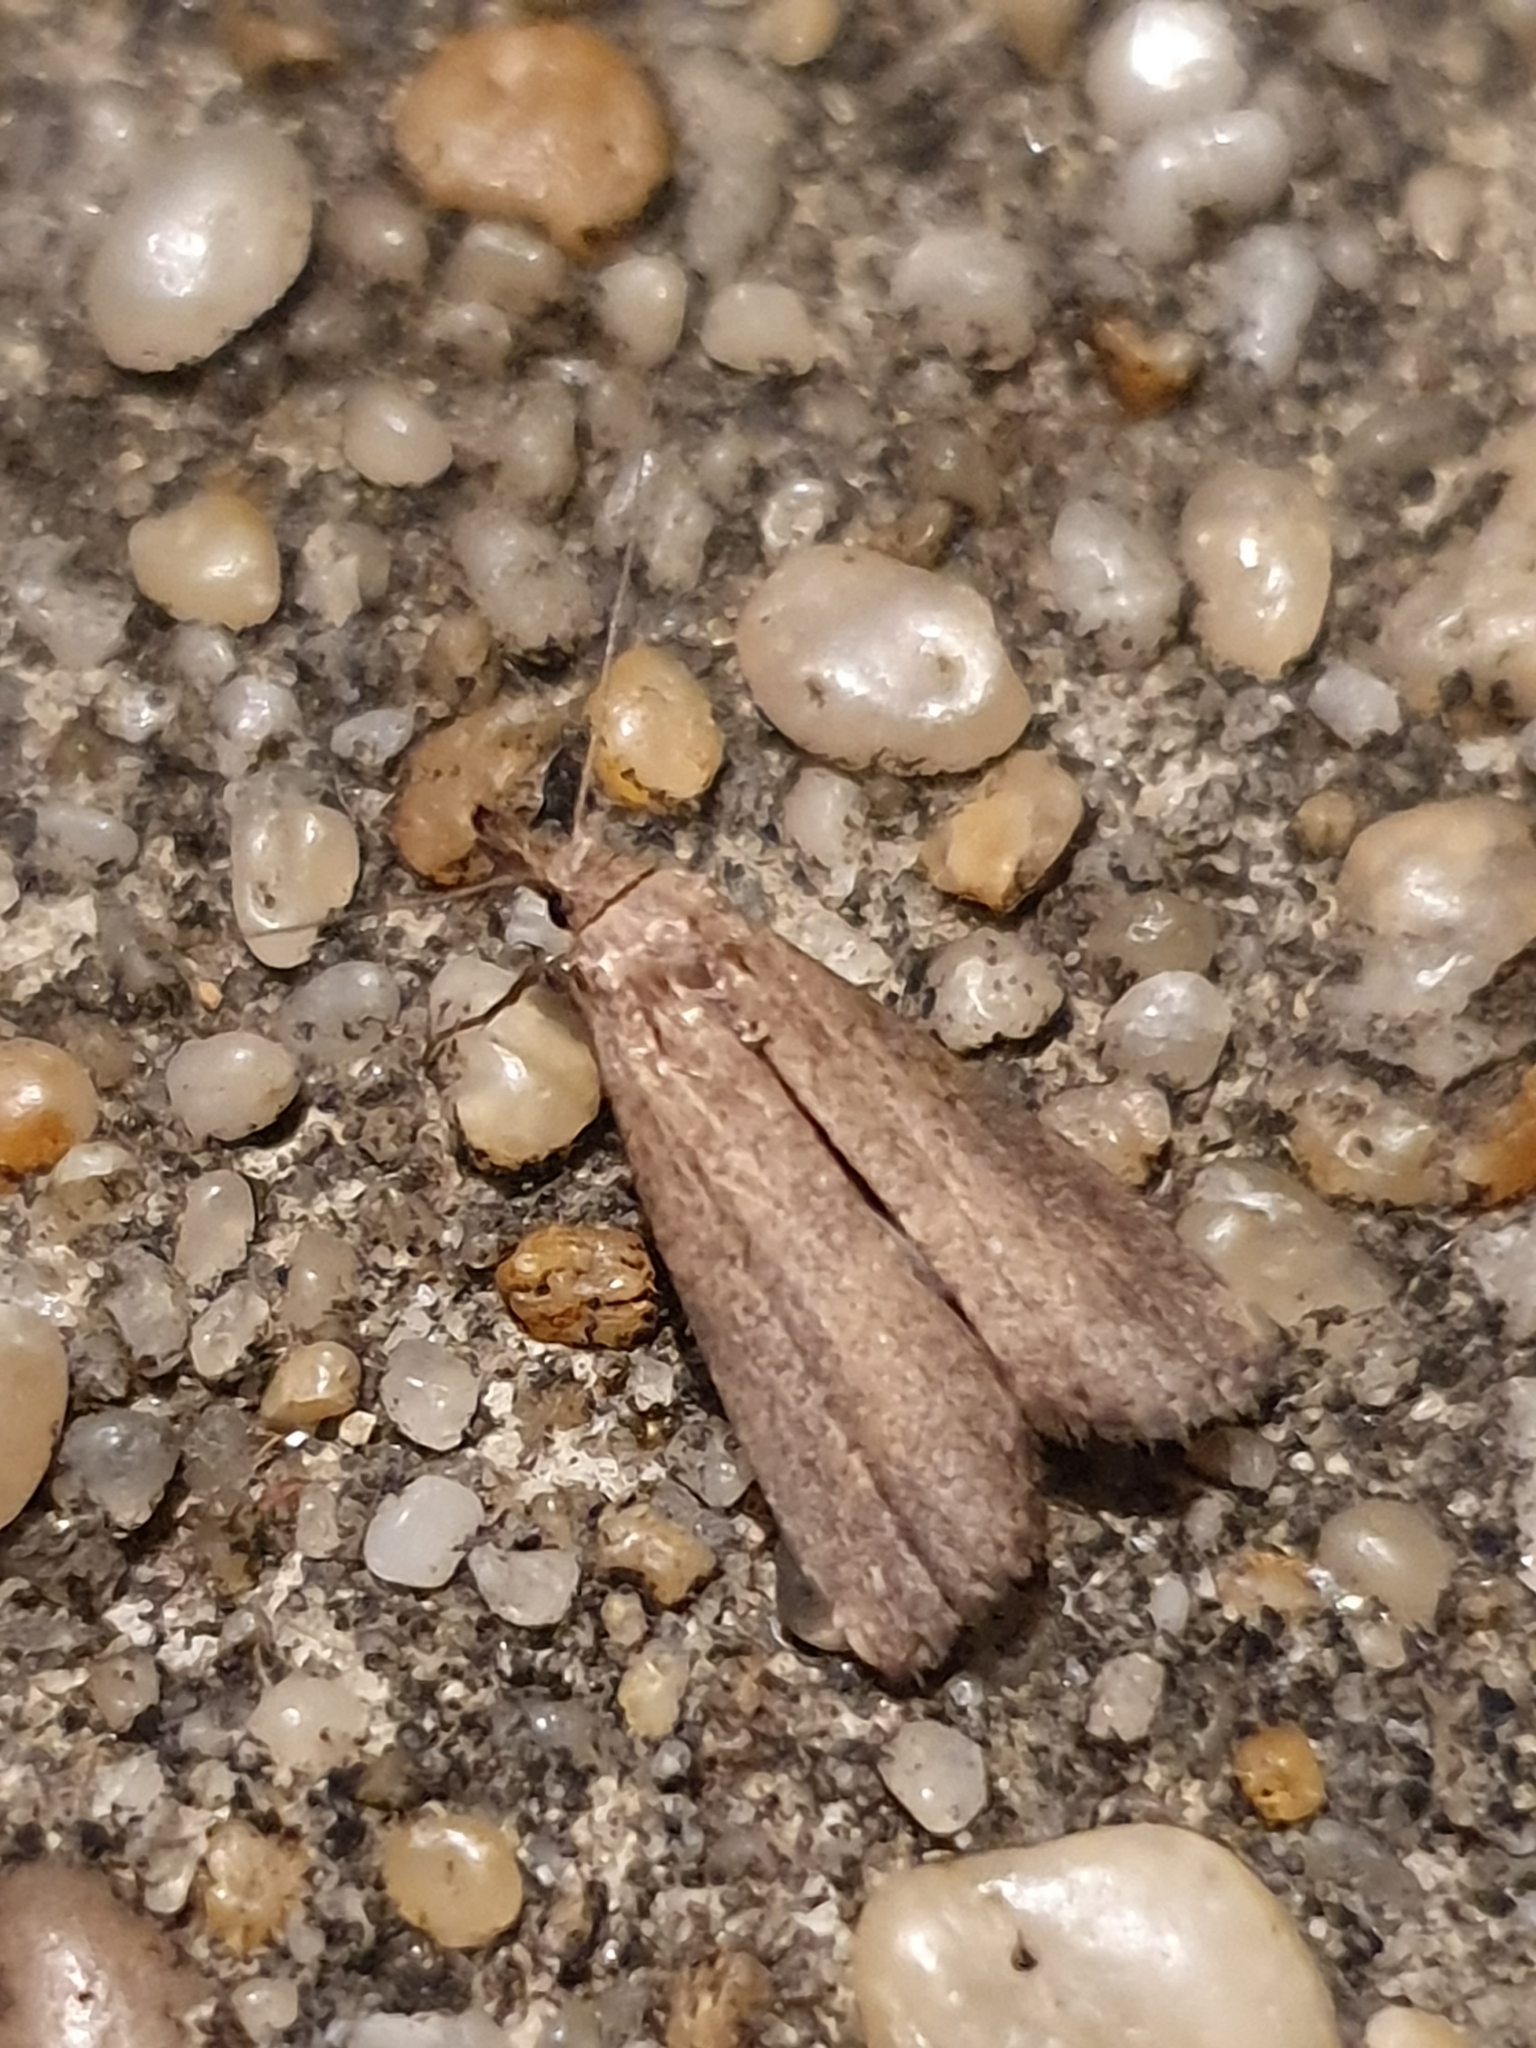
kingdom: Animalia
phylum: Arthropoda
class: Insecta
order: Lepidoptera
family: Erebidae
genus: Schrankia
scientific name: Schrankia costaestrigalis
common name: Pinion-streaked snout
